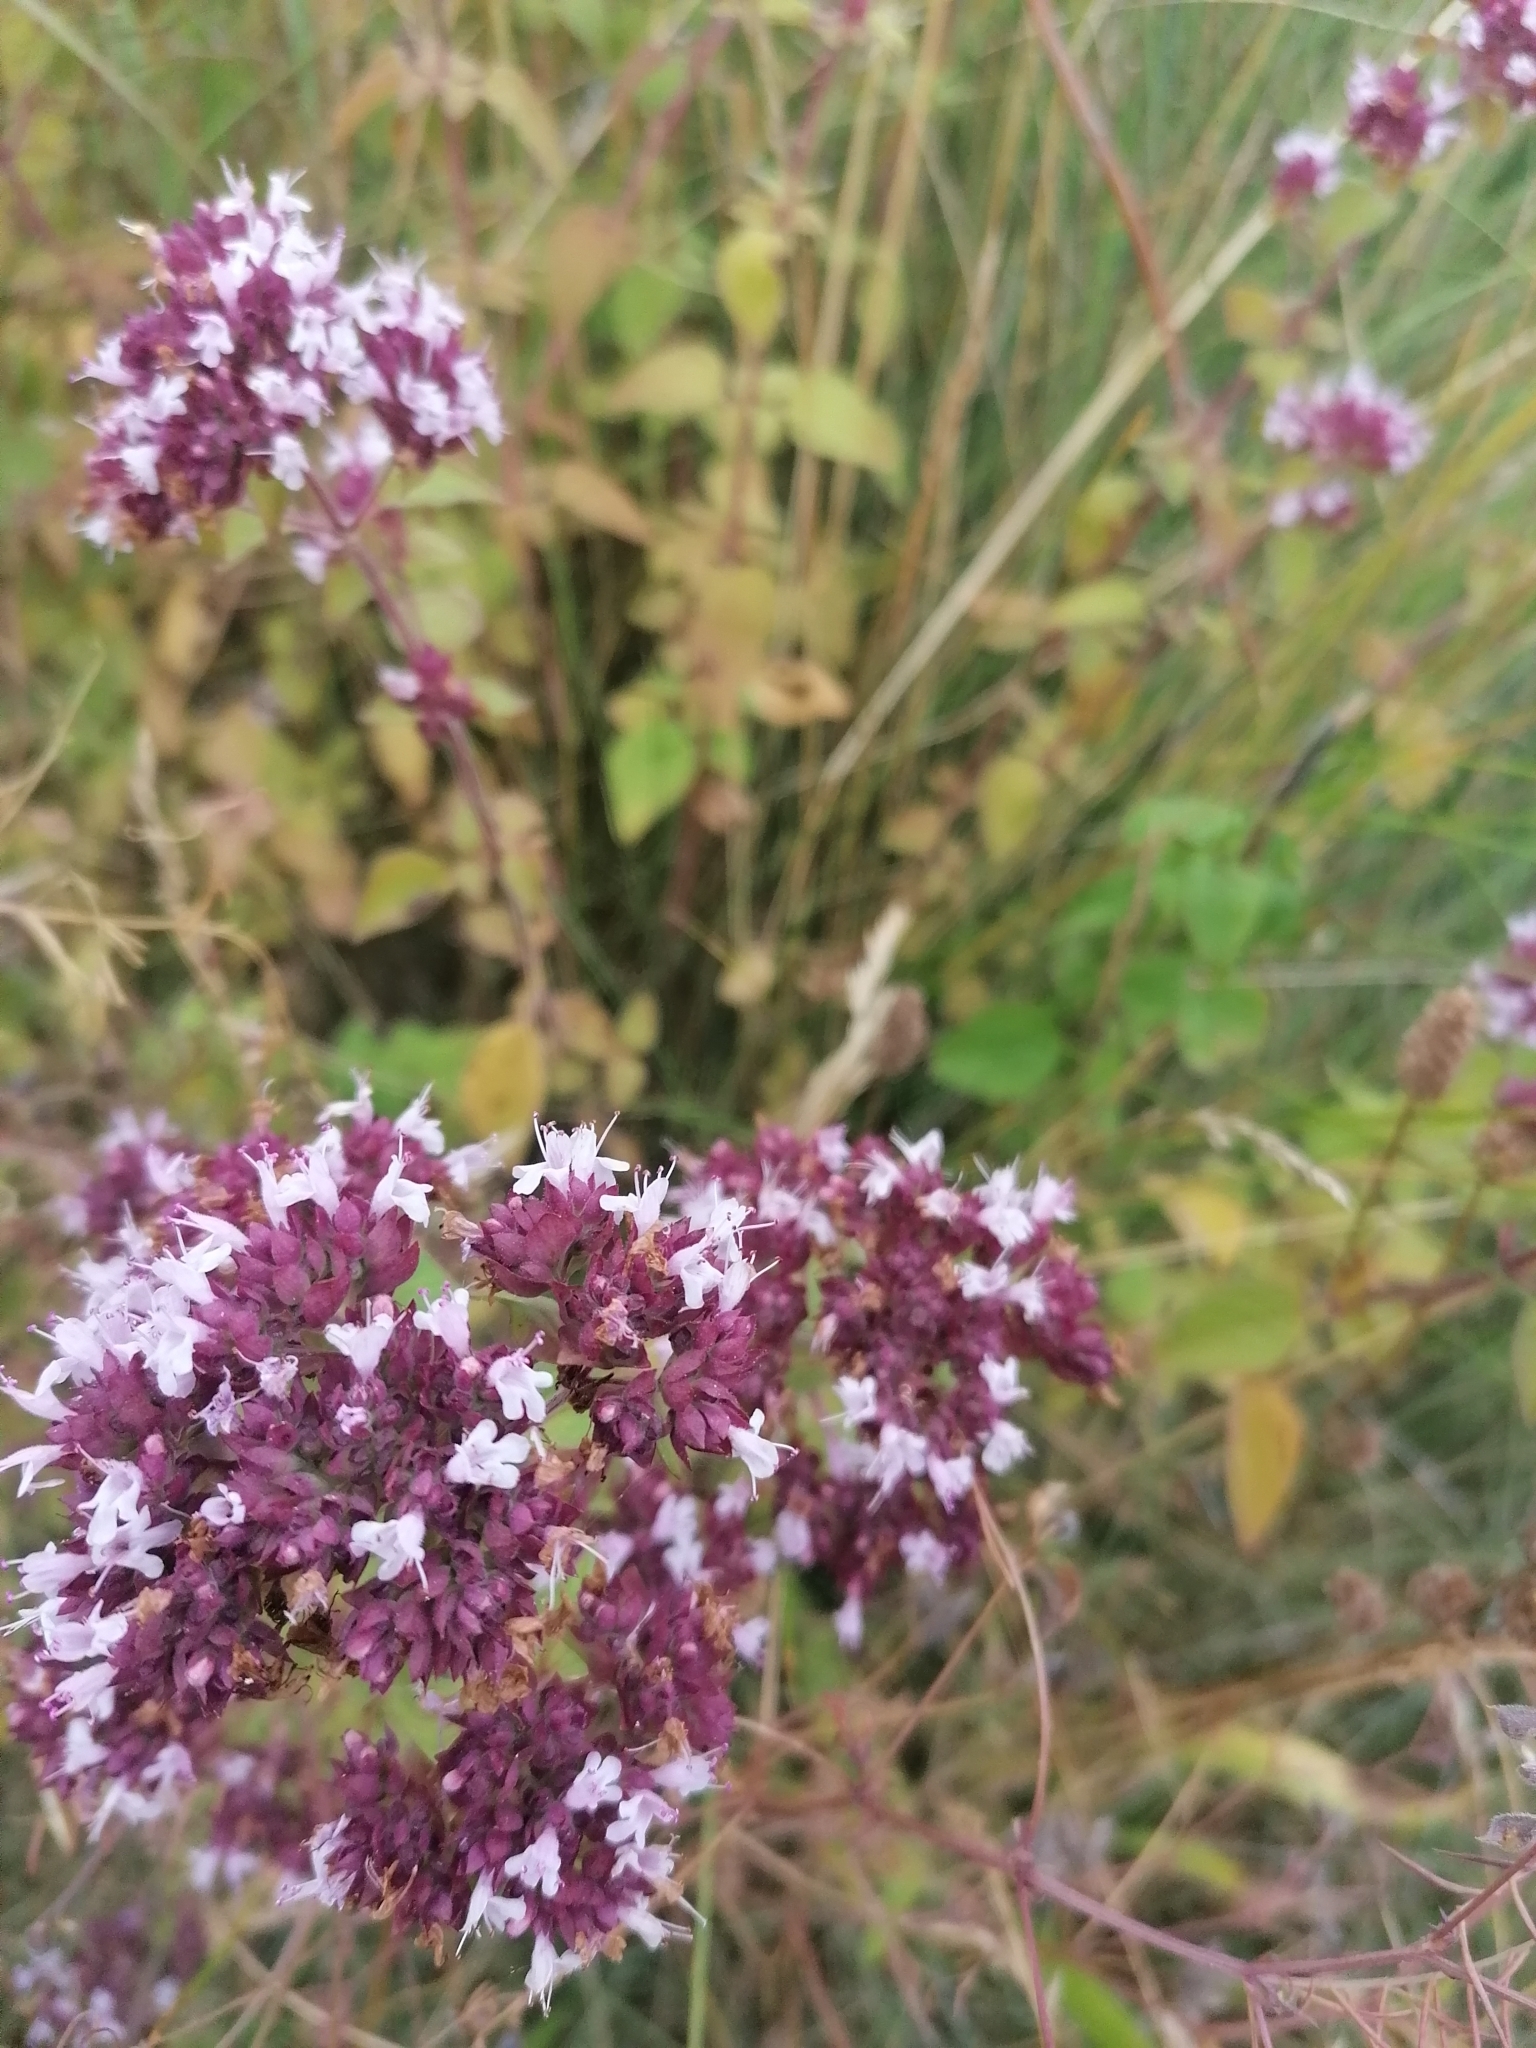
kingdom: Plantae
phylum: Tracheophyta
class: Magnoliopsida
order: Lamiales
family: Lamiaceae
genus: Origanum
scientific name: Origanum vulgare
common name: Wild marjoram
